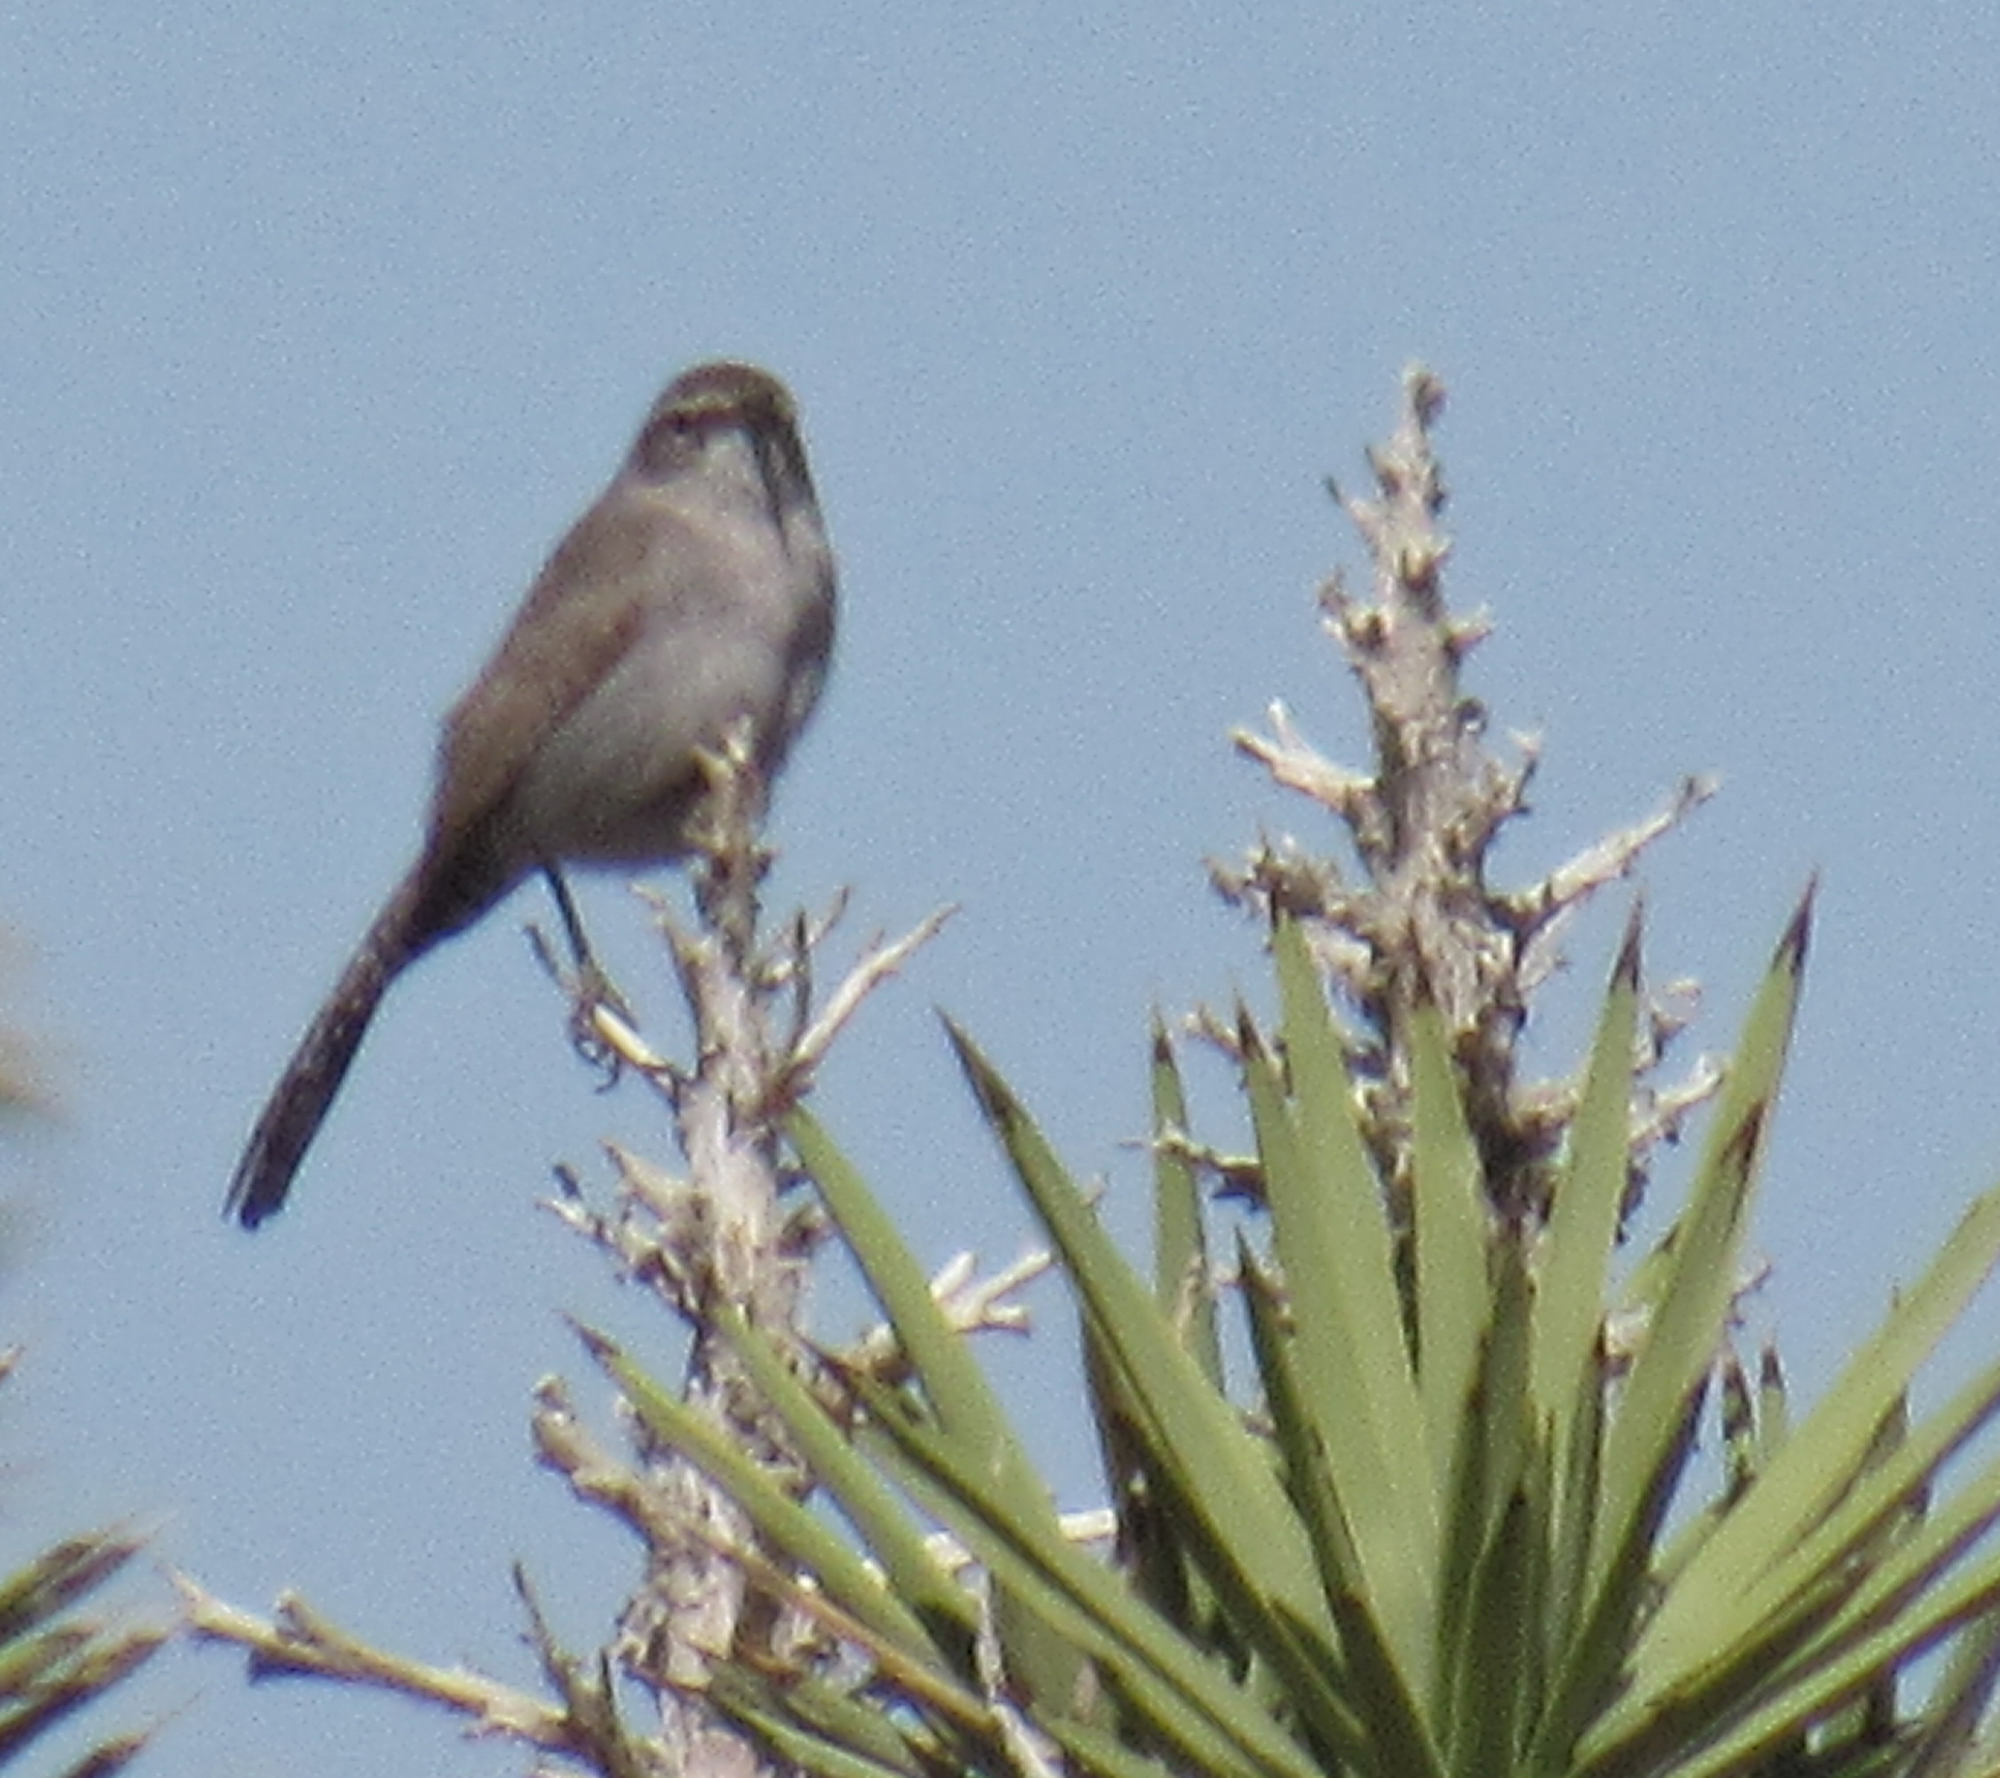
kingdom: Animalia
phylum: Chordata
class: Aves
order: Passeriformes
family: Troglodytidae
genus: Thryomanes
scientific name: Thryomanes bewickii
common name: Bewick's wren
